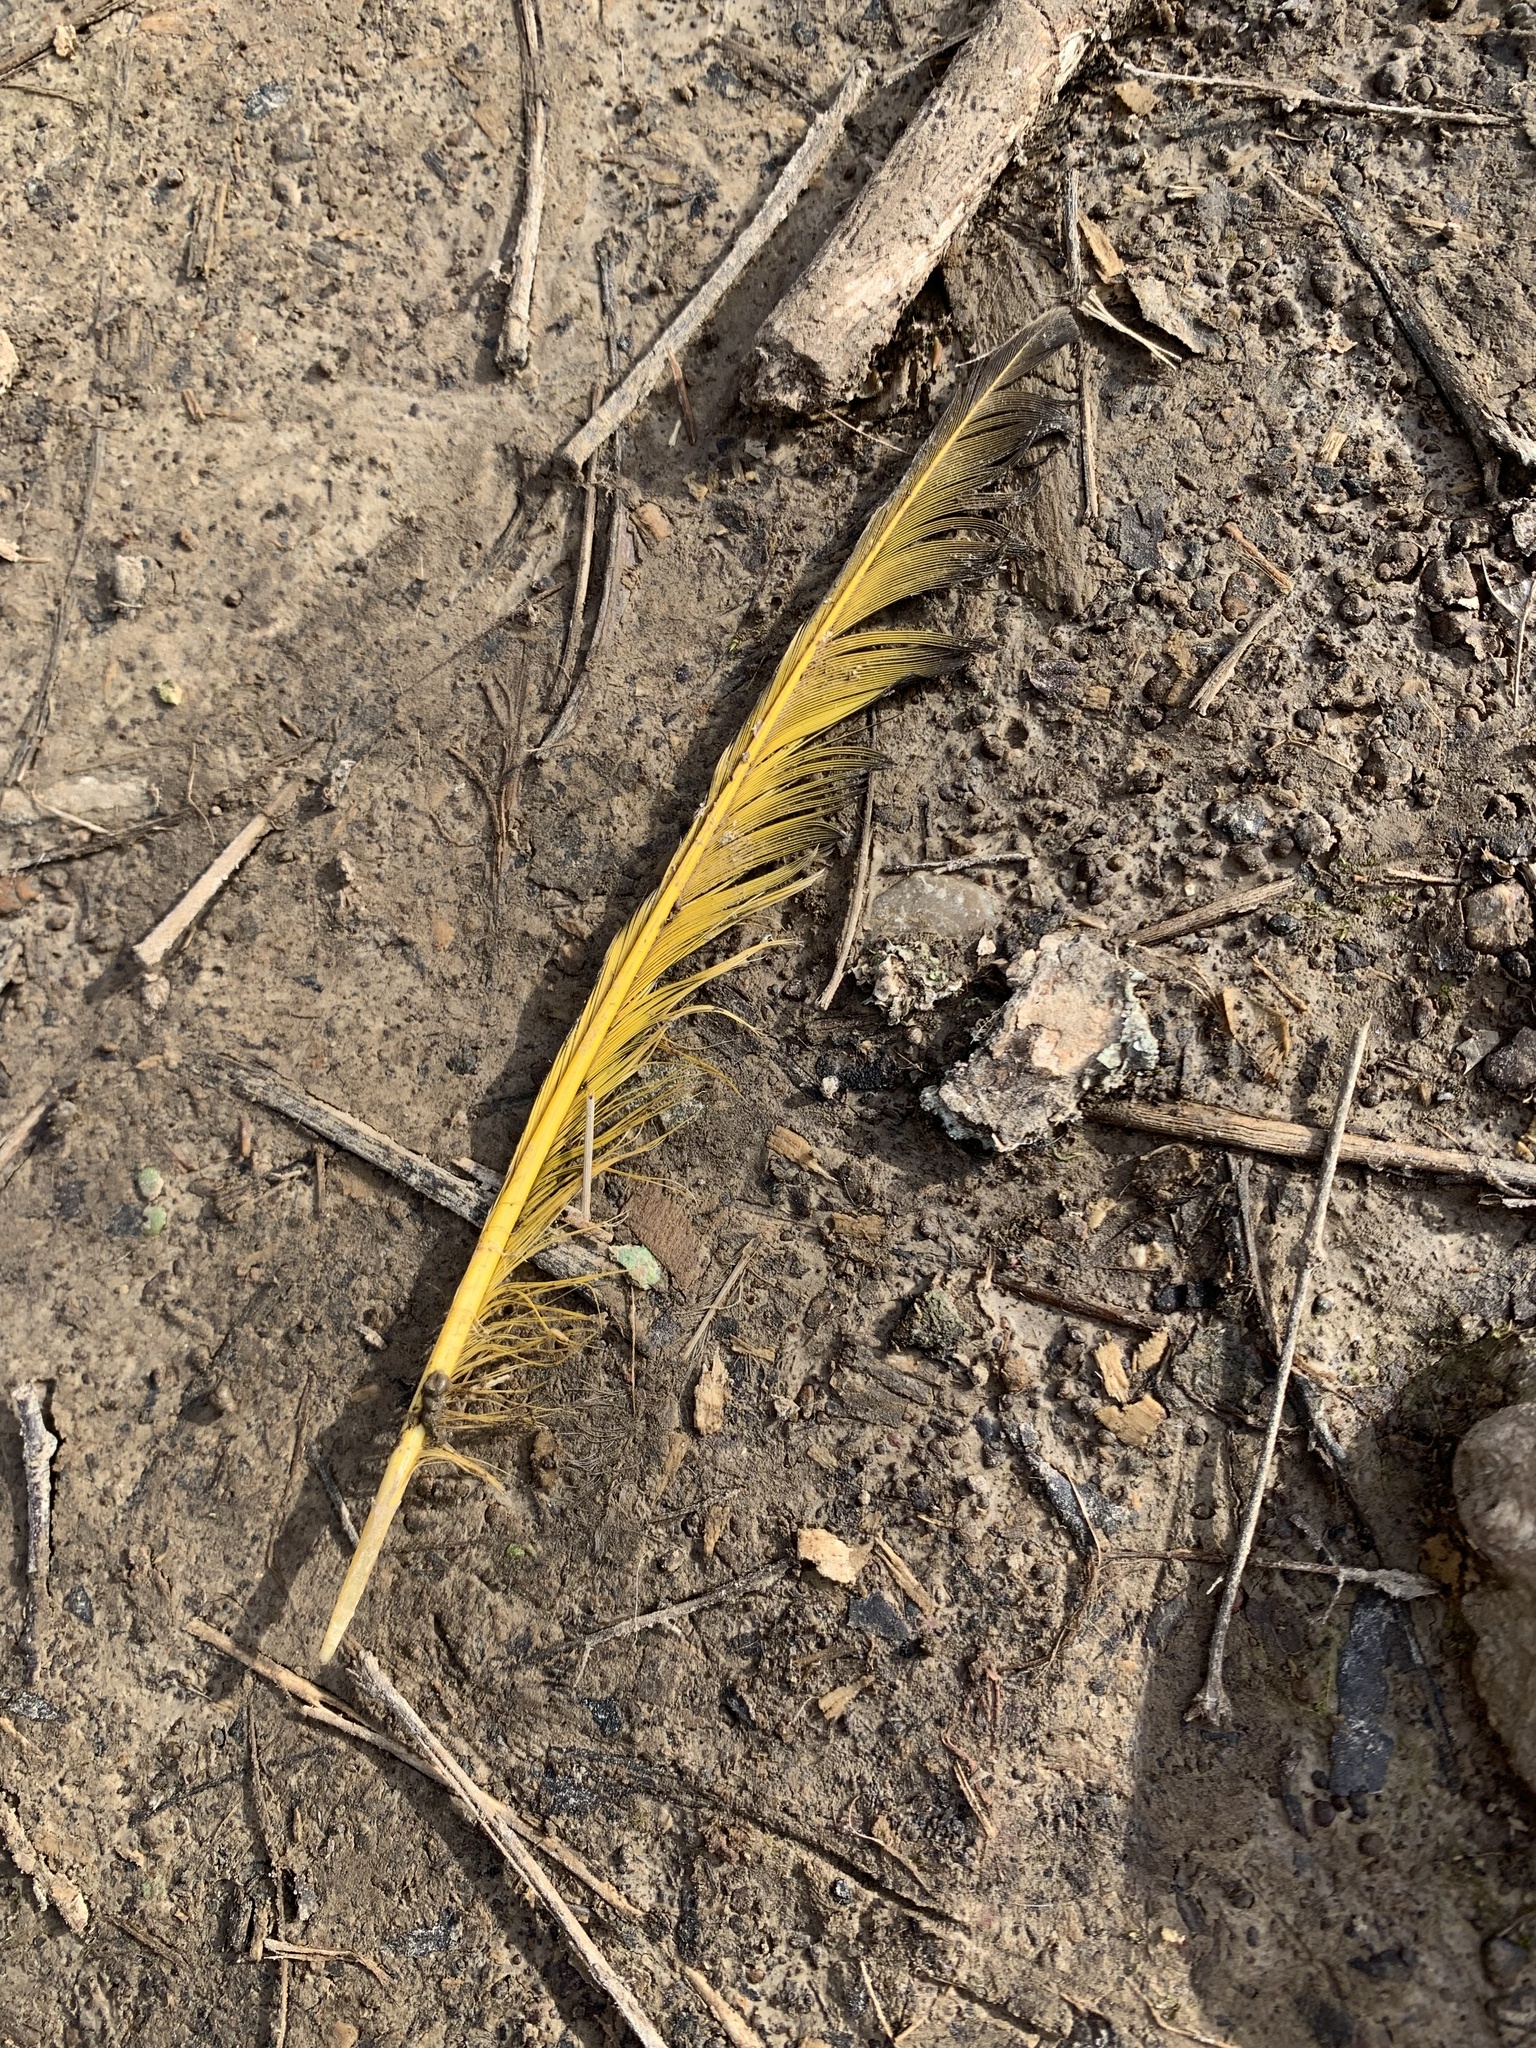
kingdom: Animalia
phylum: Chordata
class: Aves
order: Piciformes
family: Picidae
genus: Colaptes
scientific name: Colaptes auratus
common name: Northern flicker
